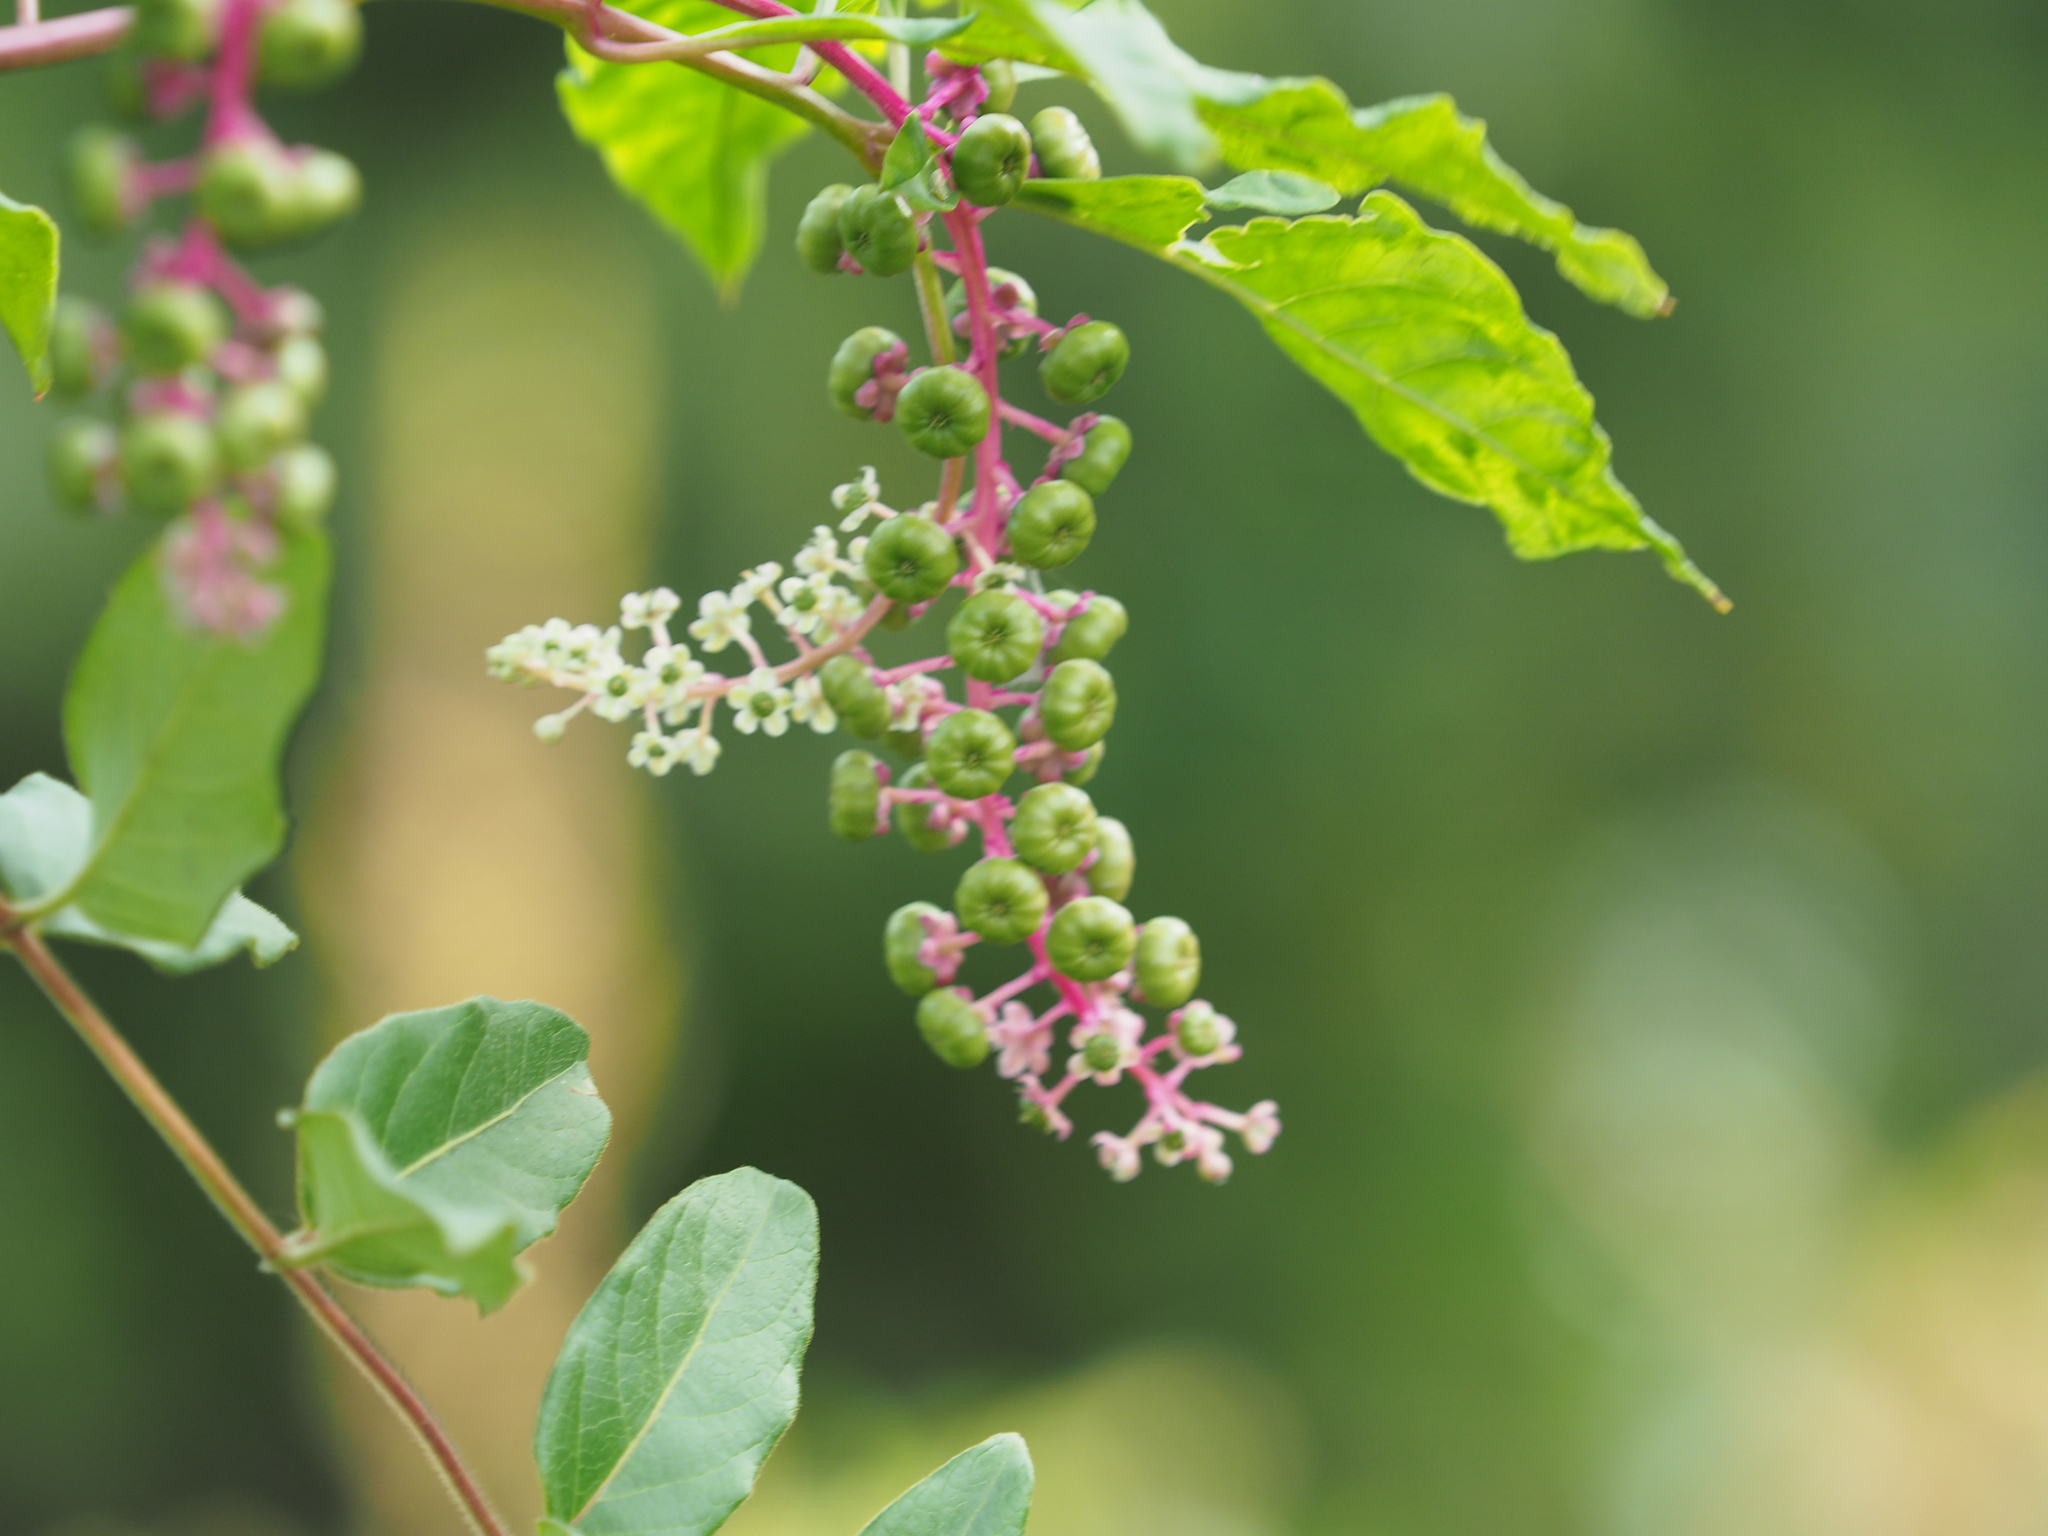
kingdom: Plantae
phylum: Tracheophyta
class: Magnoliopsida
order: Caryophyllales
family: Phytolaccaceae
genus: Phytolacca
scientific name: Phytolacca americana
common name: American pokeweed
